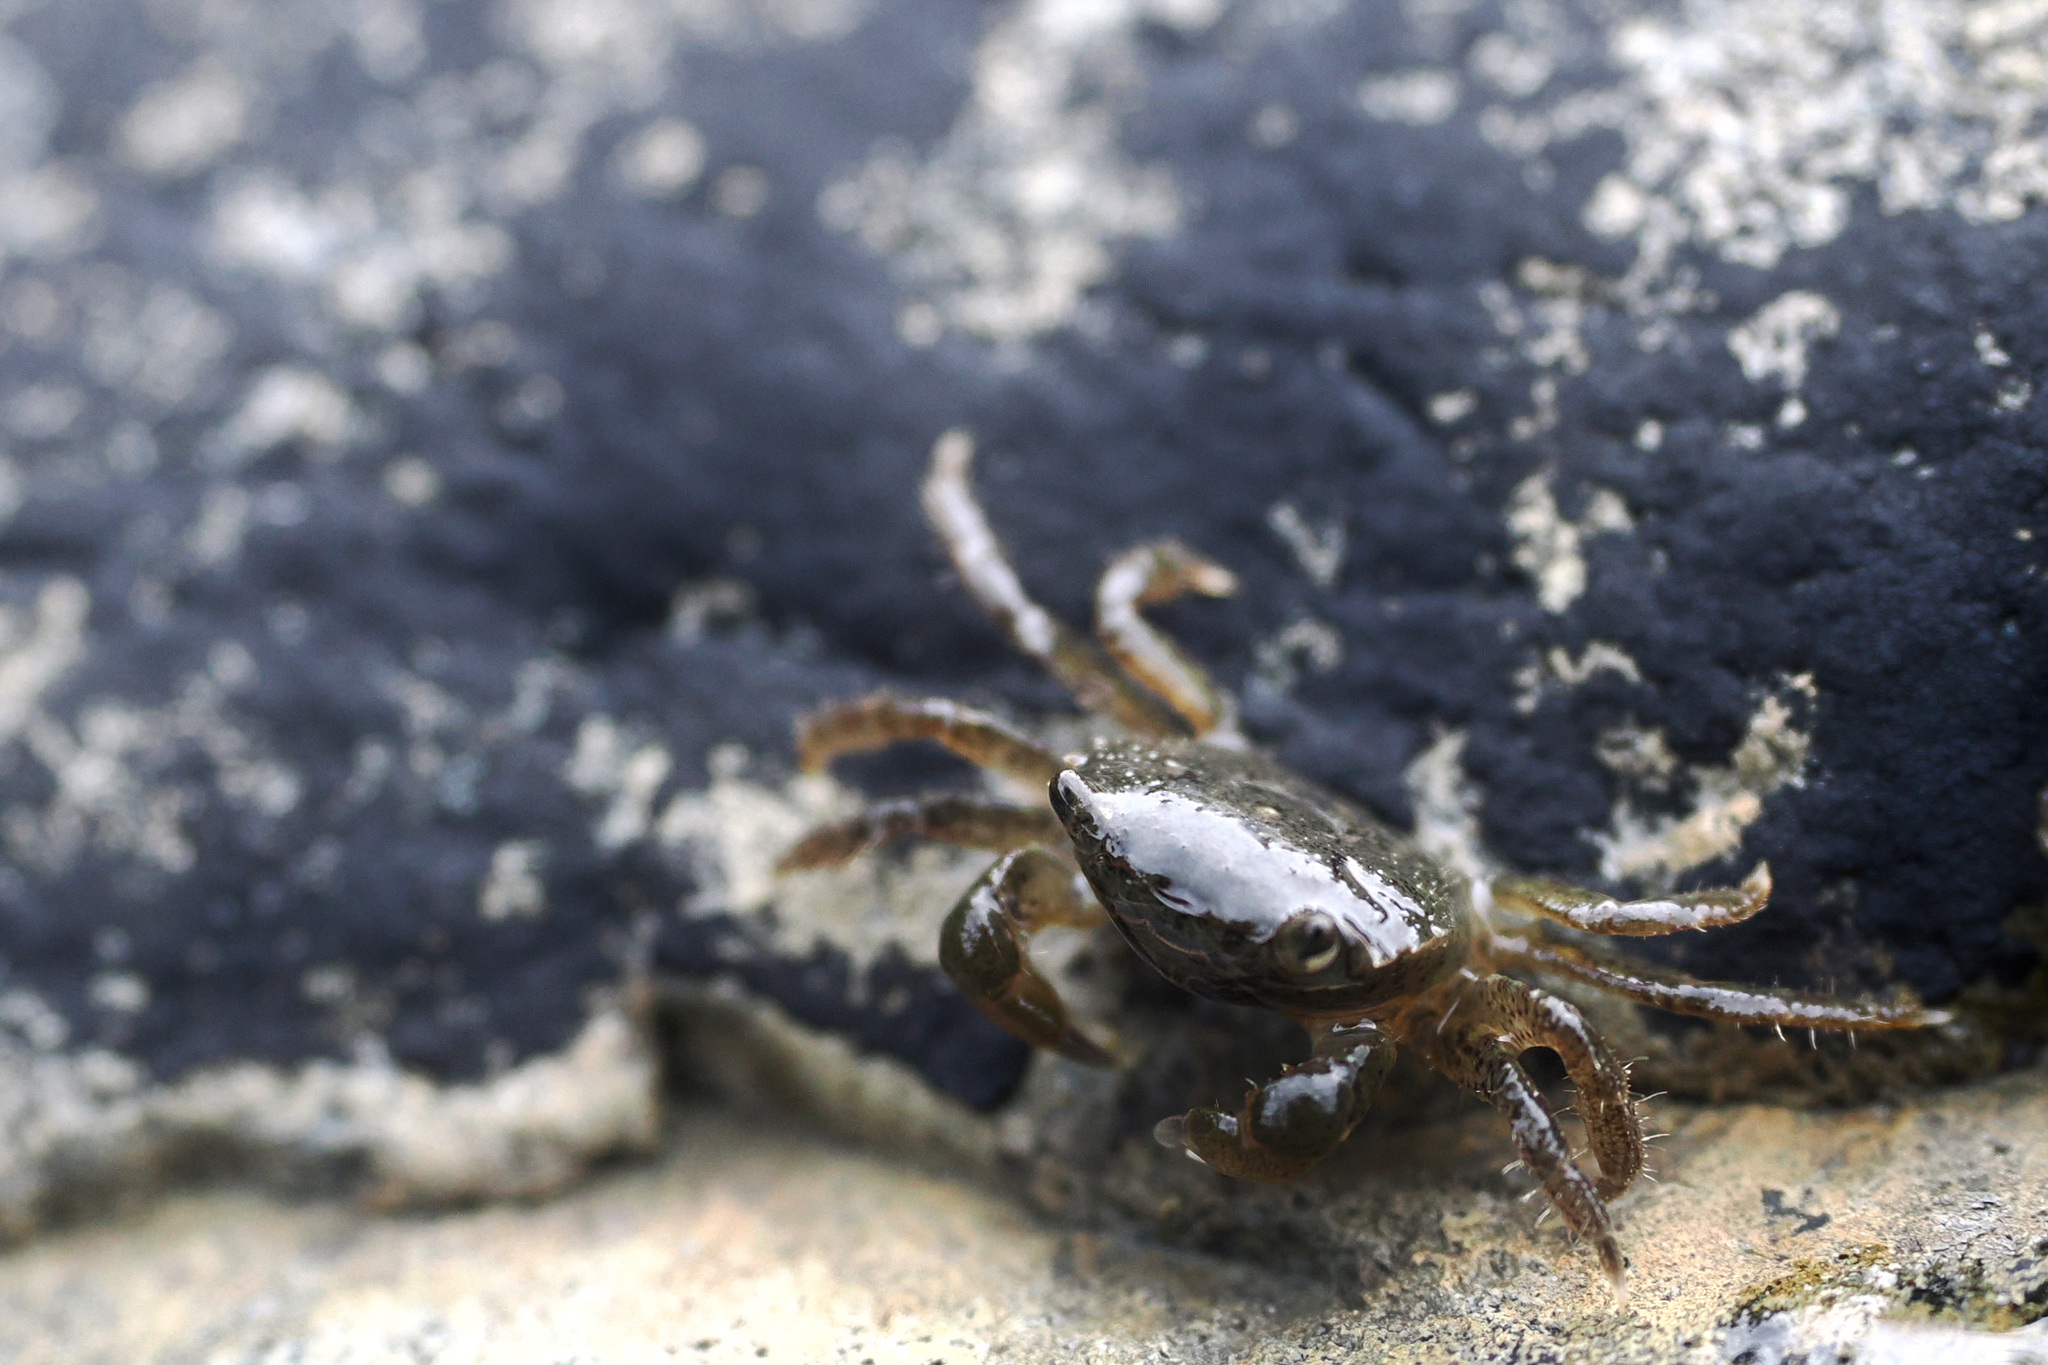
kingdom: Animalia
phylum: Arthropoda
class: Malacostraca
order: Decapoda
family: Varunidae
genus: Hemigrapsus
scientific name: Hemigrapsus oregonensis
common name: Yellow shore crab
